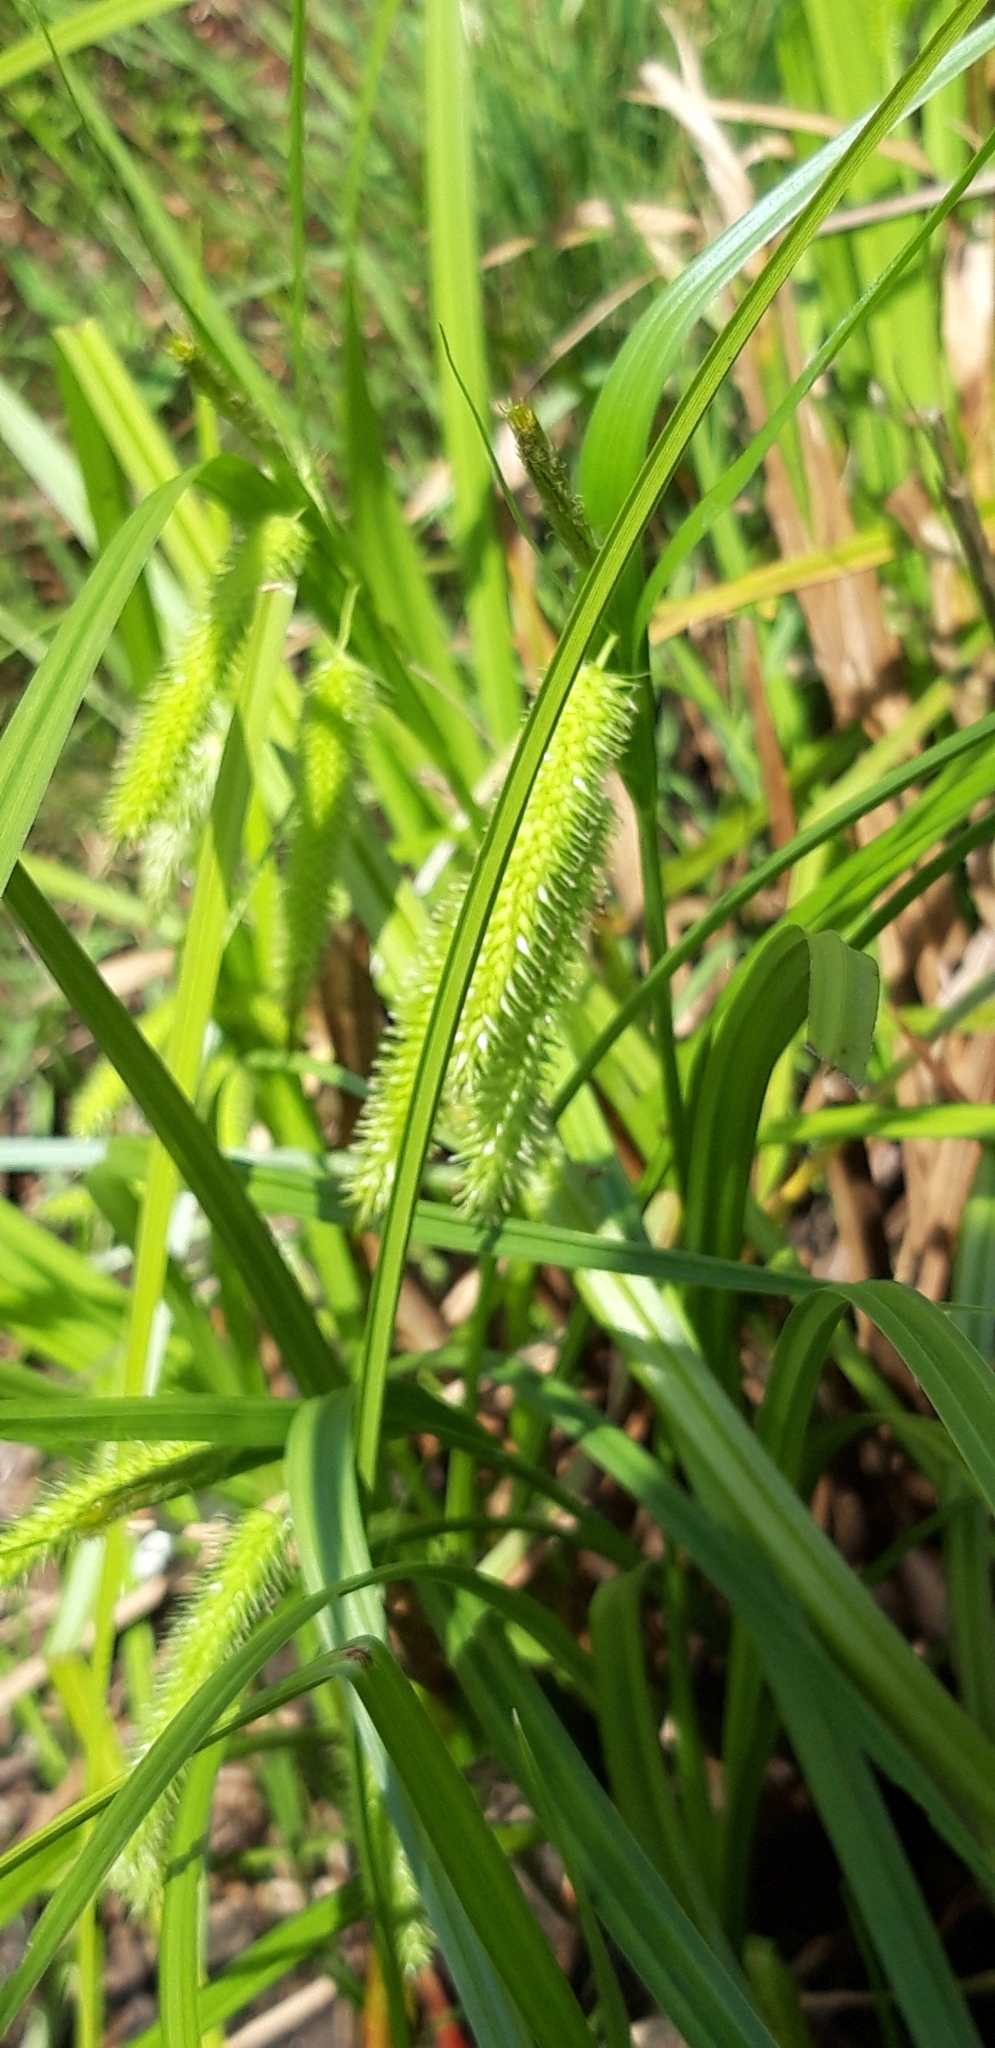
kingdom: Plantae
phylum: Tracheophyta
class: Liliopsida
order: Poales
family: Cyperaceae
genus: Carex
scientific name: Carex pseudocyperus
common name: Cyperus sedge
